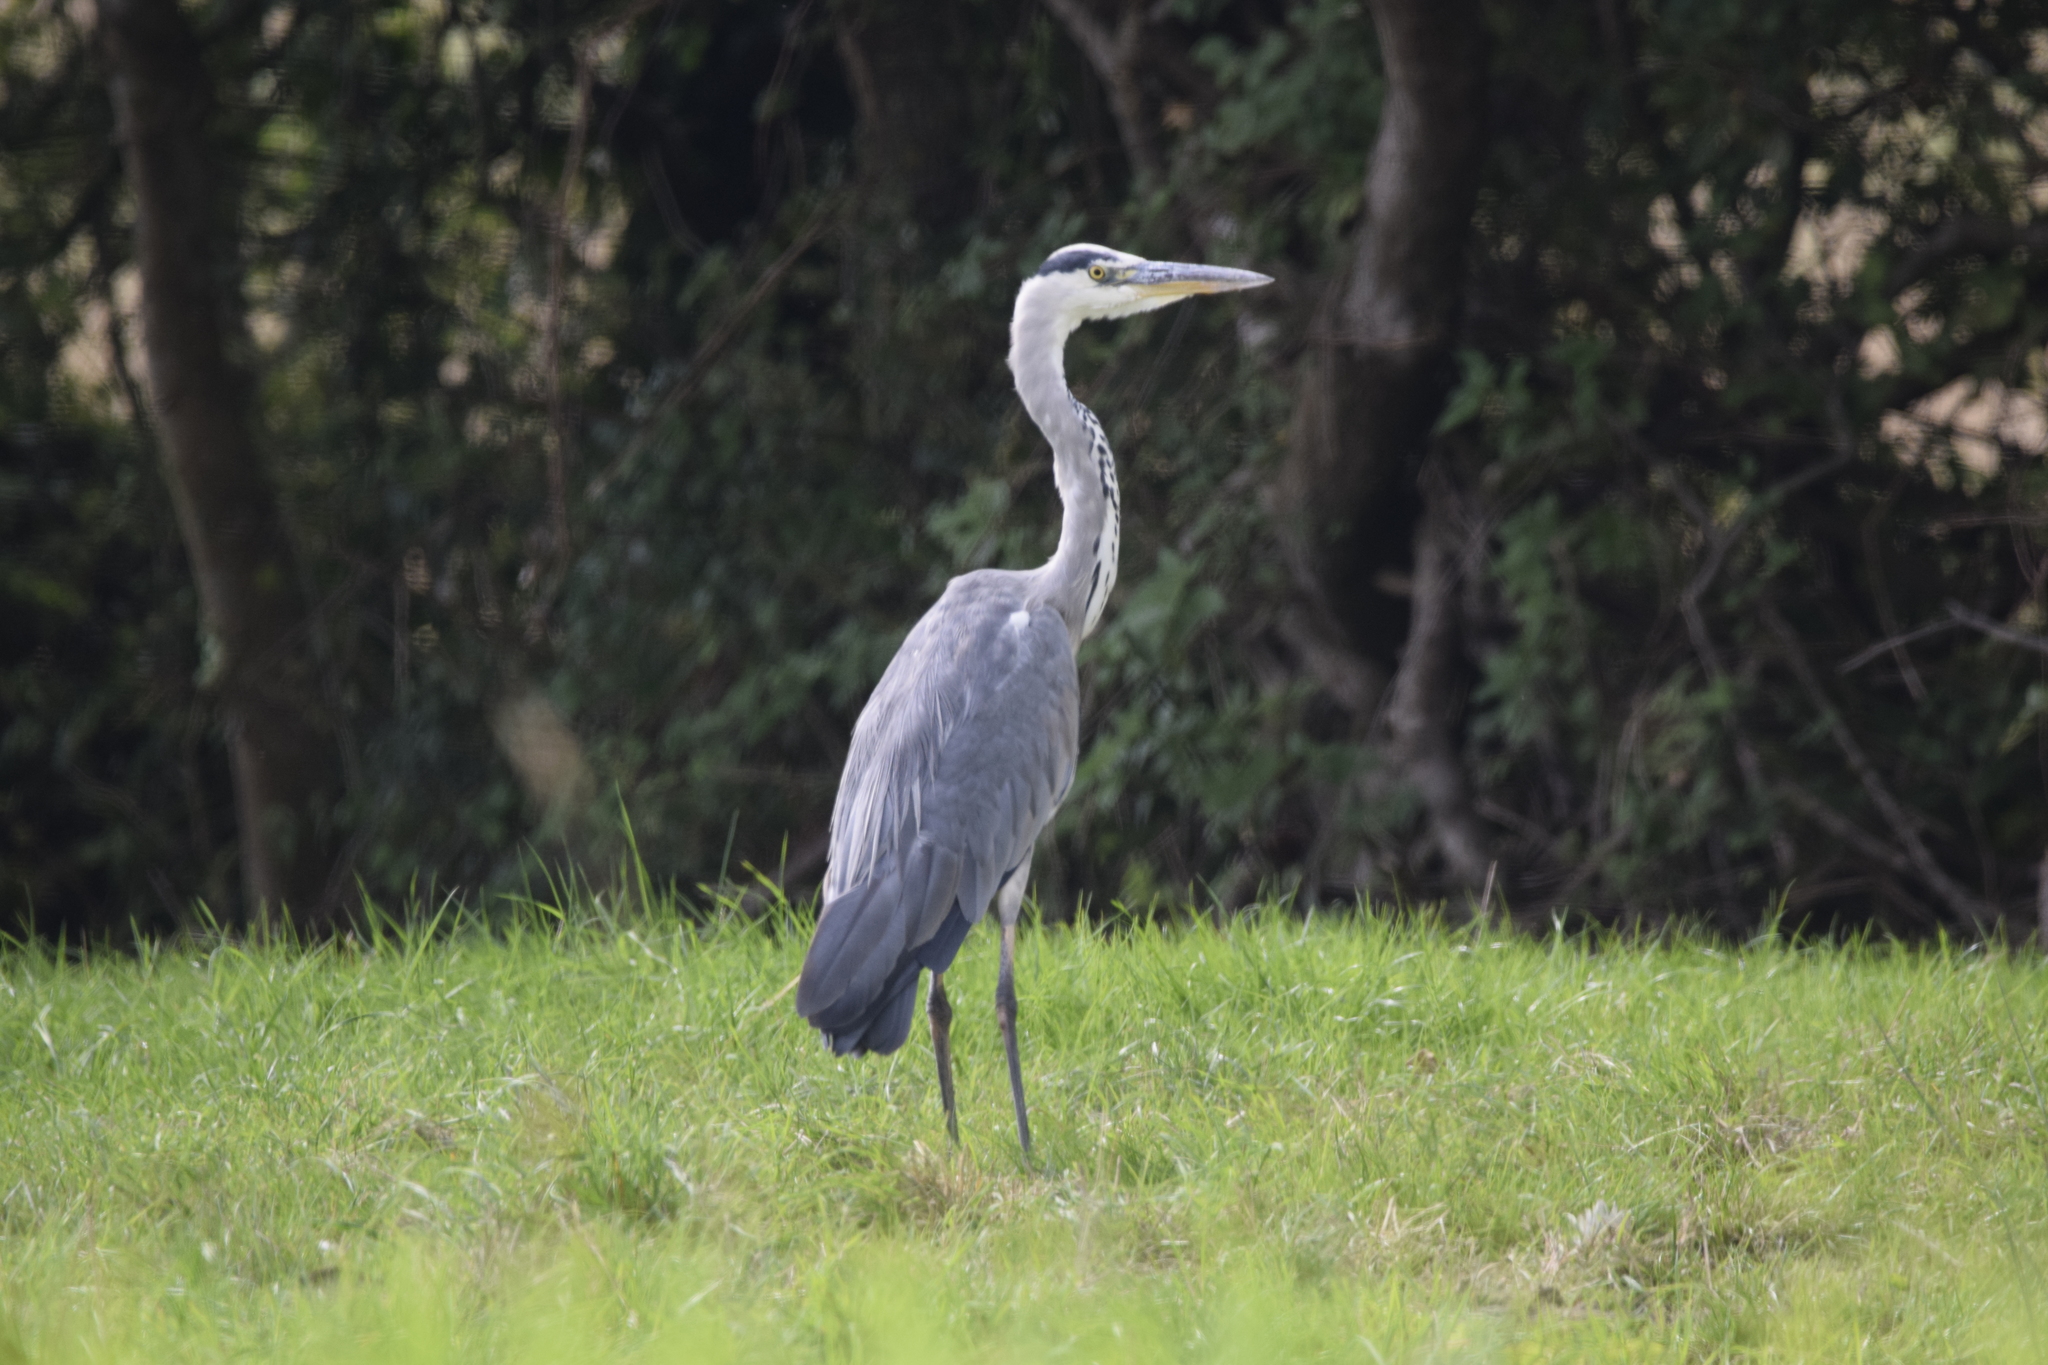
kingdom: Animalia
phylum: Chordata
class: Aves
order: Pelecaniformes
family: Ardeidae
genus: Ardea
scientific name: Ardea cinerea
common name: Grey heron
